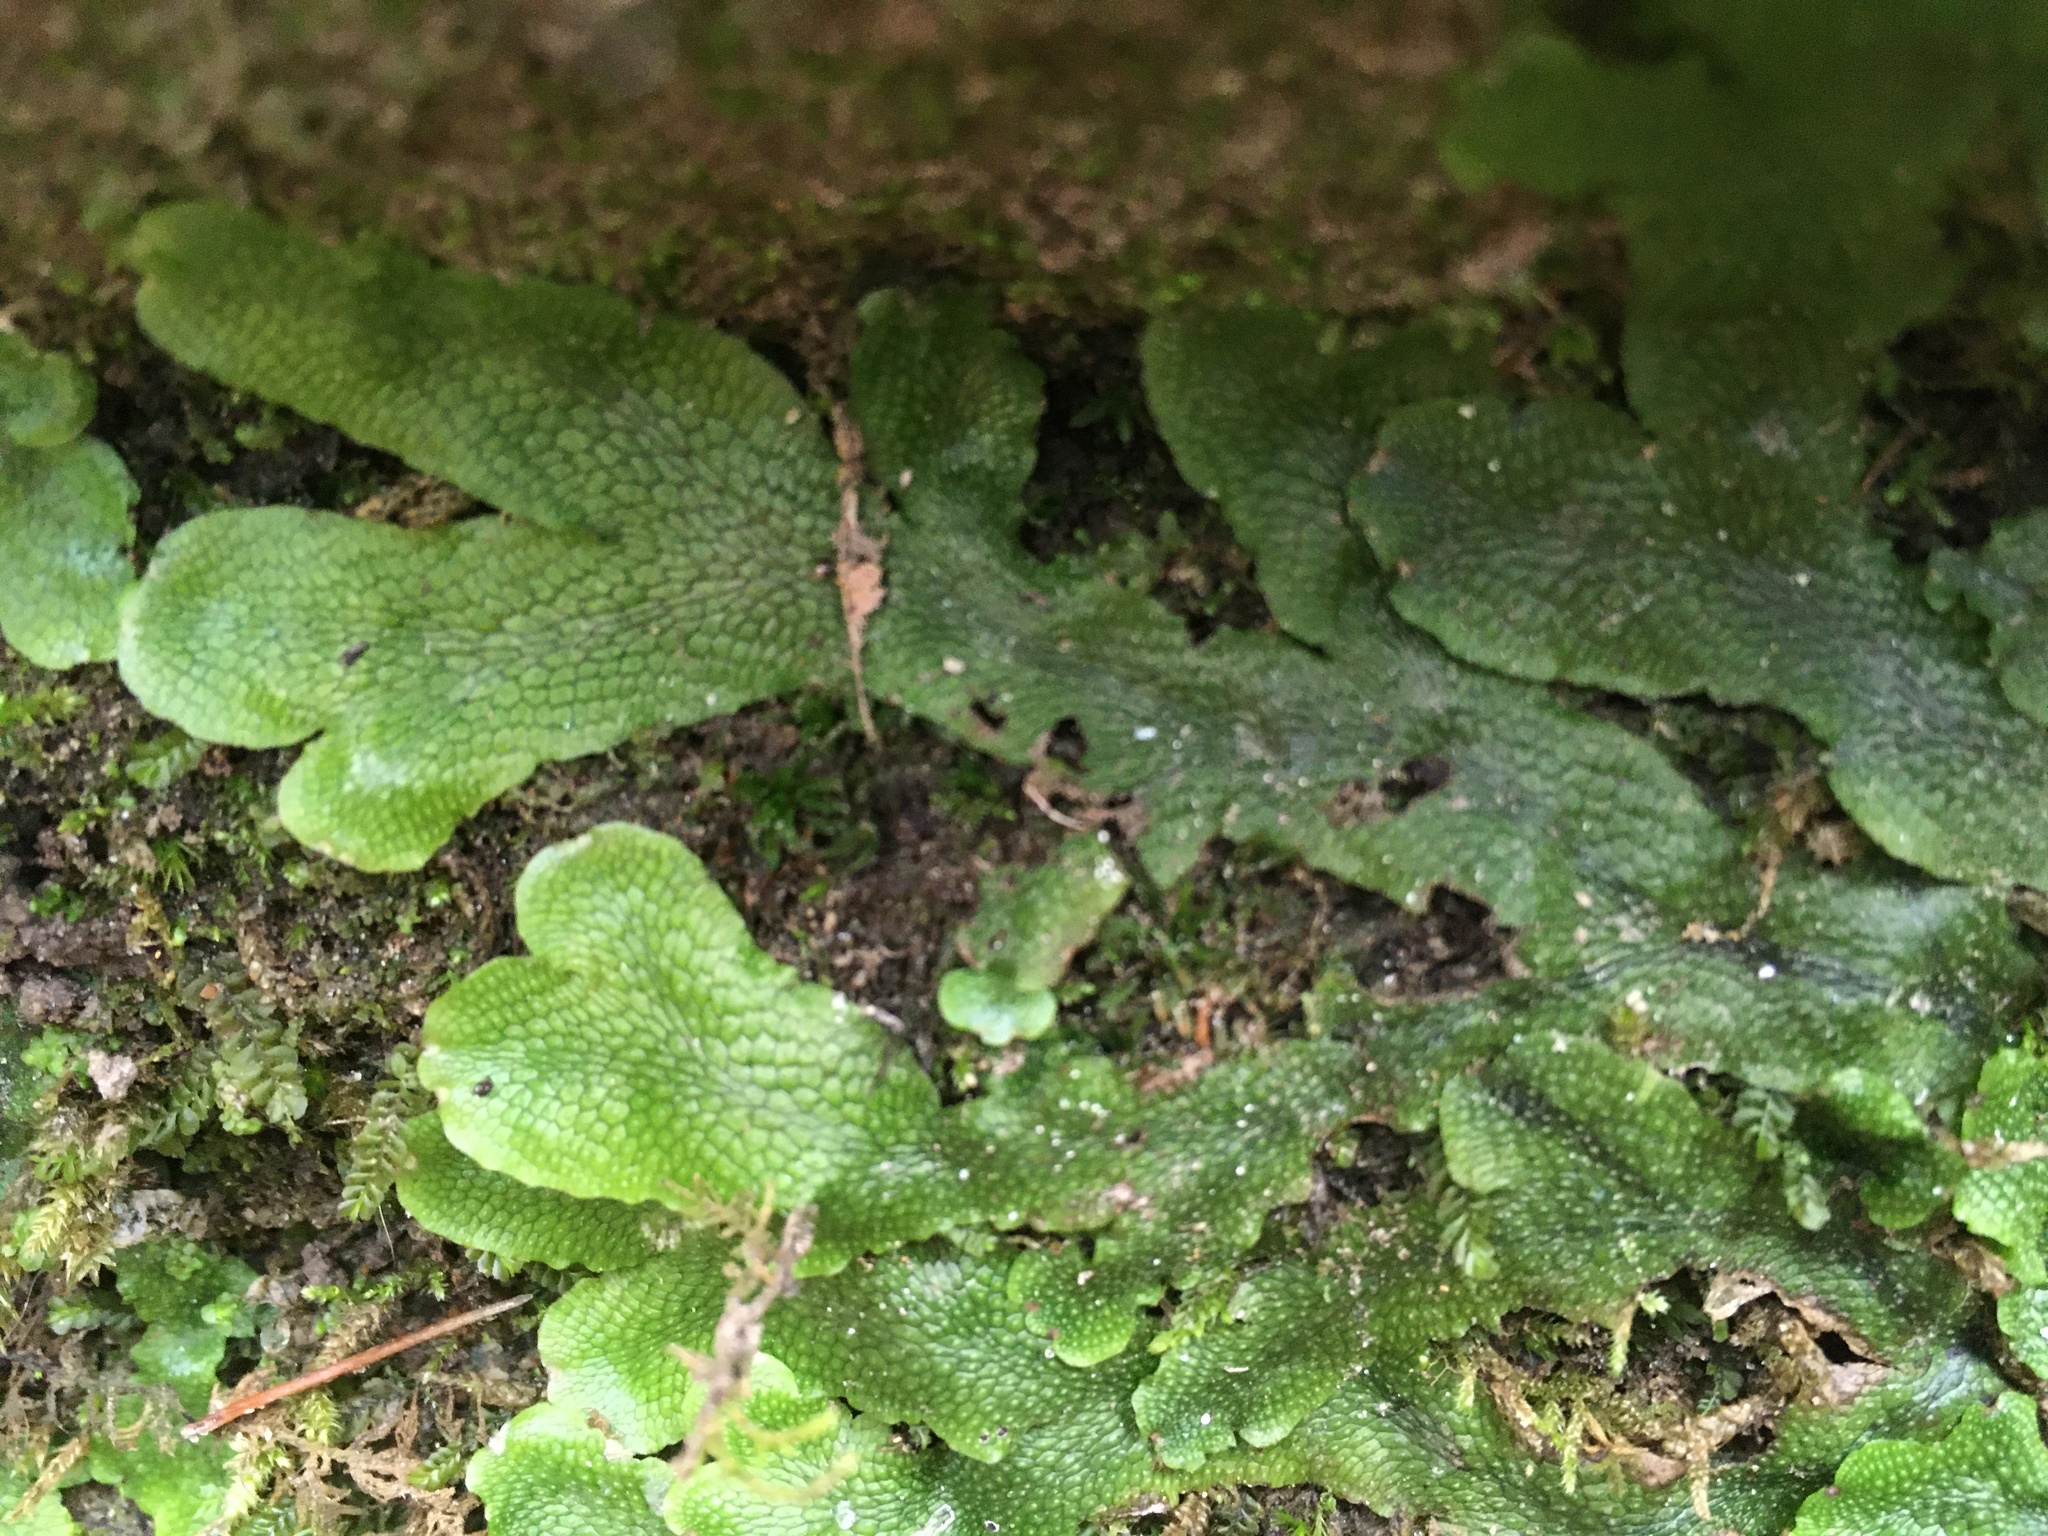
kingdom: Plantae
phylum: Marchantiophyta
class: Marchantiopsida
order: Marchantiales
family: Conocephalaceae
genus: Conocephalum
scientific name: Conocephalum salebrosum
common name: Cat-tongue liverwort
